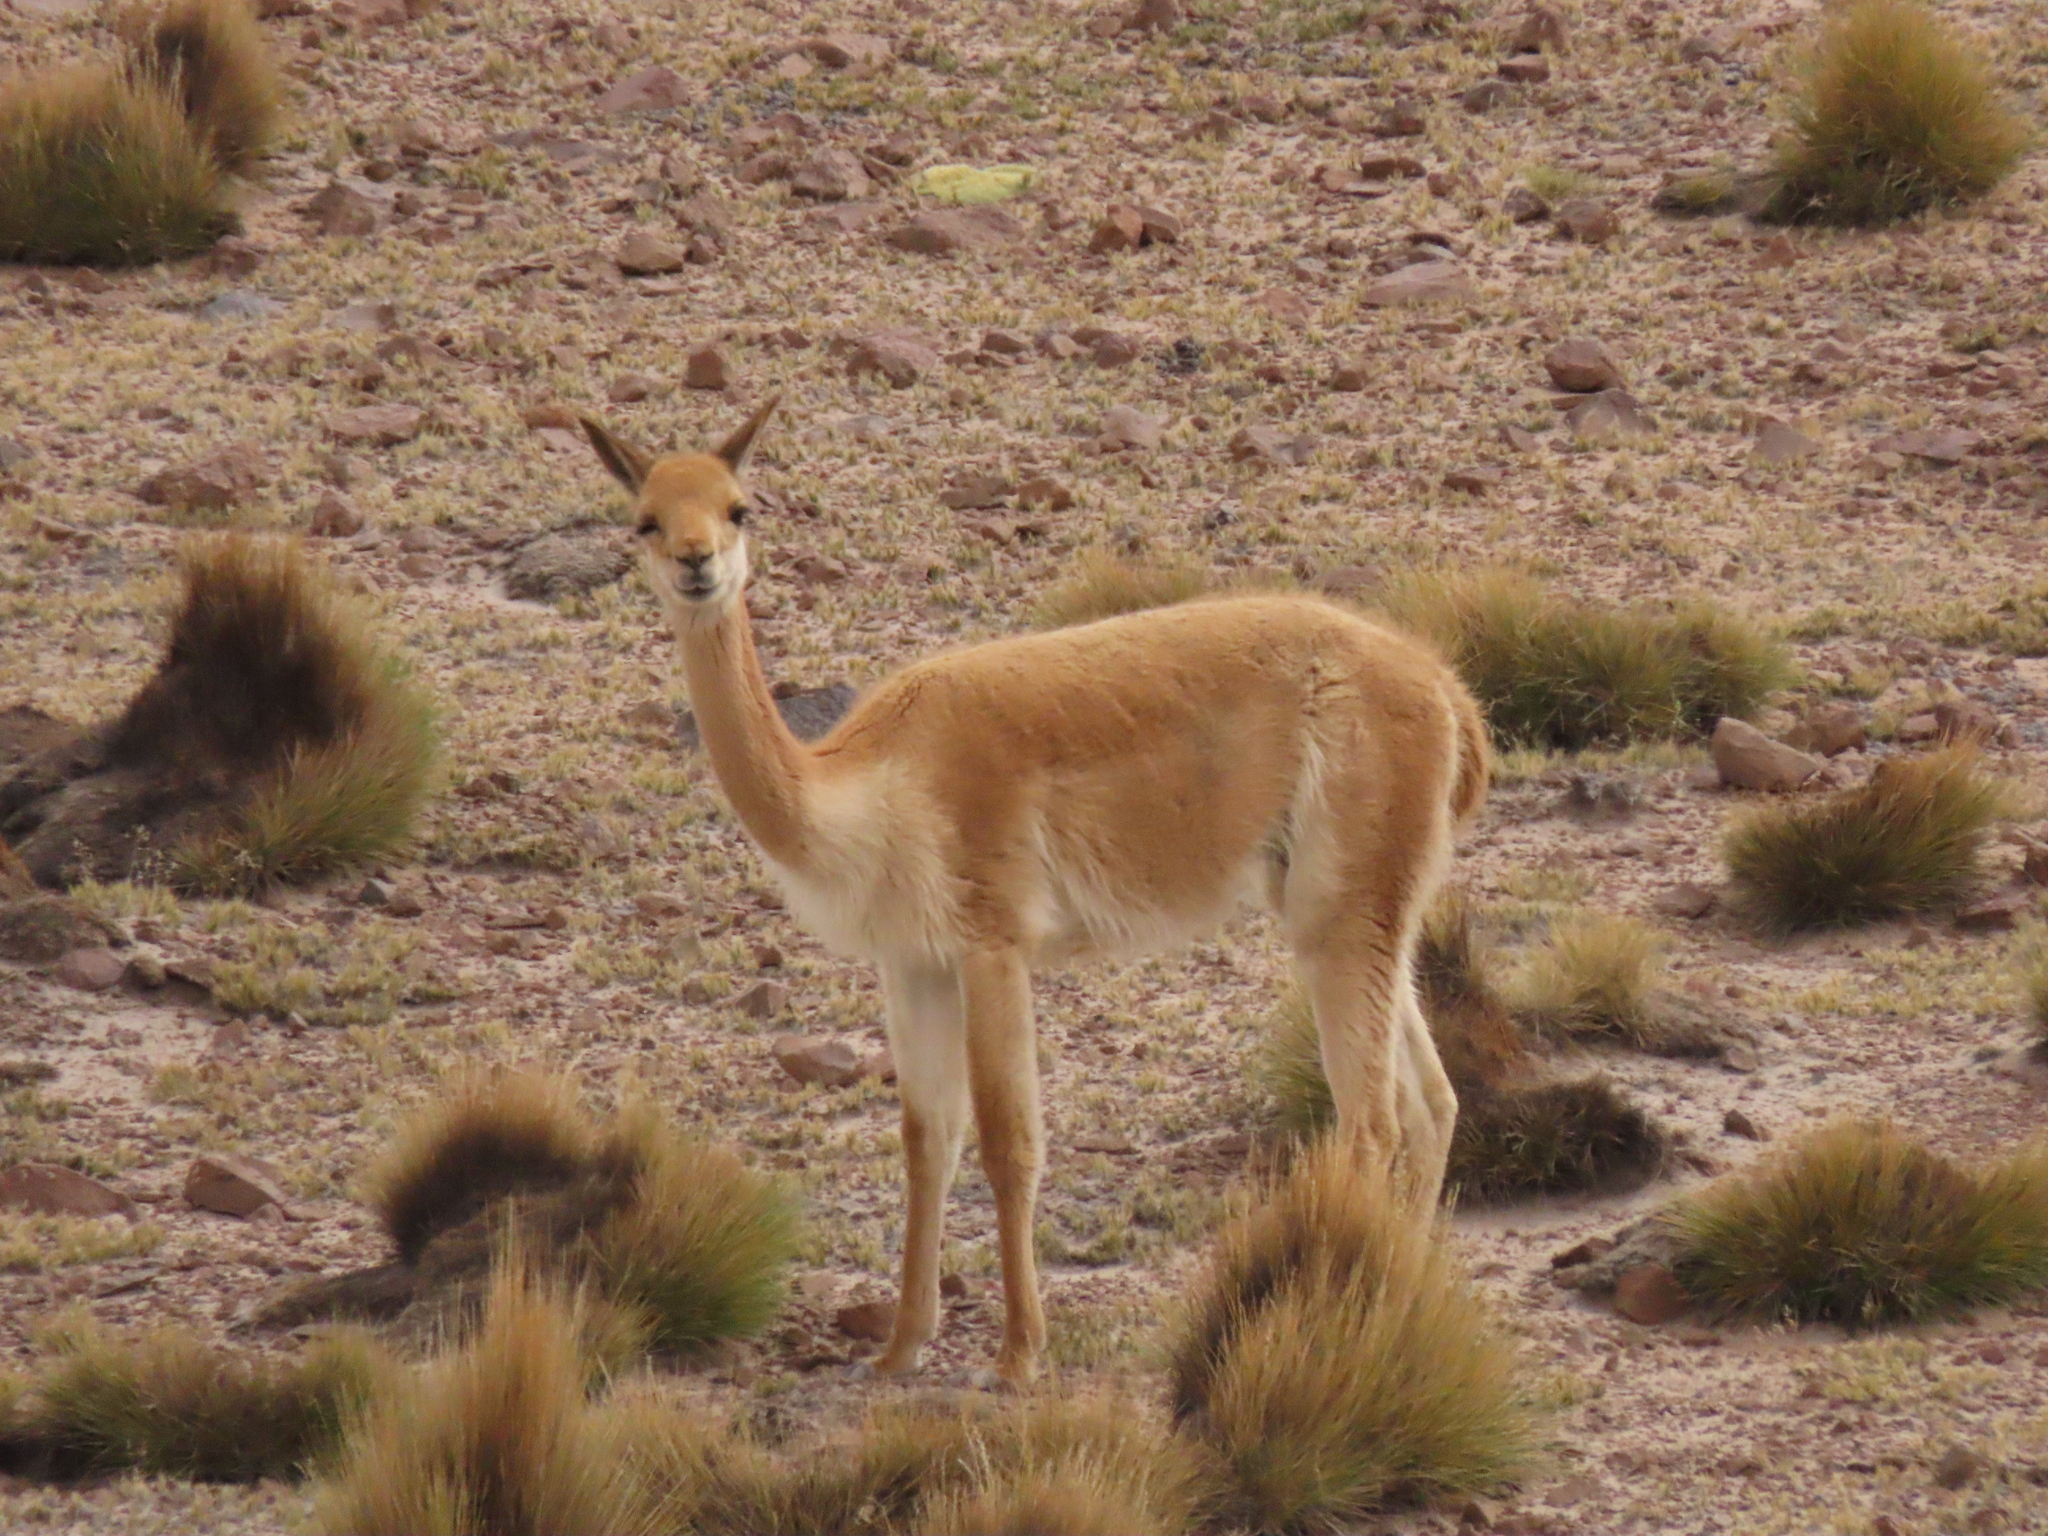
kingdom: Animalia
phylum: Chordata
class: Mammalia
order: Artiodactyla
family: Camelidae
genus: Vicugna
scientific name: Vicugna vicugna
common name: Vicugna
